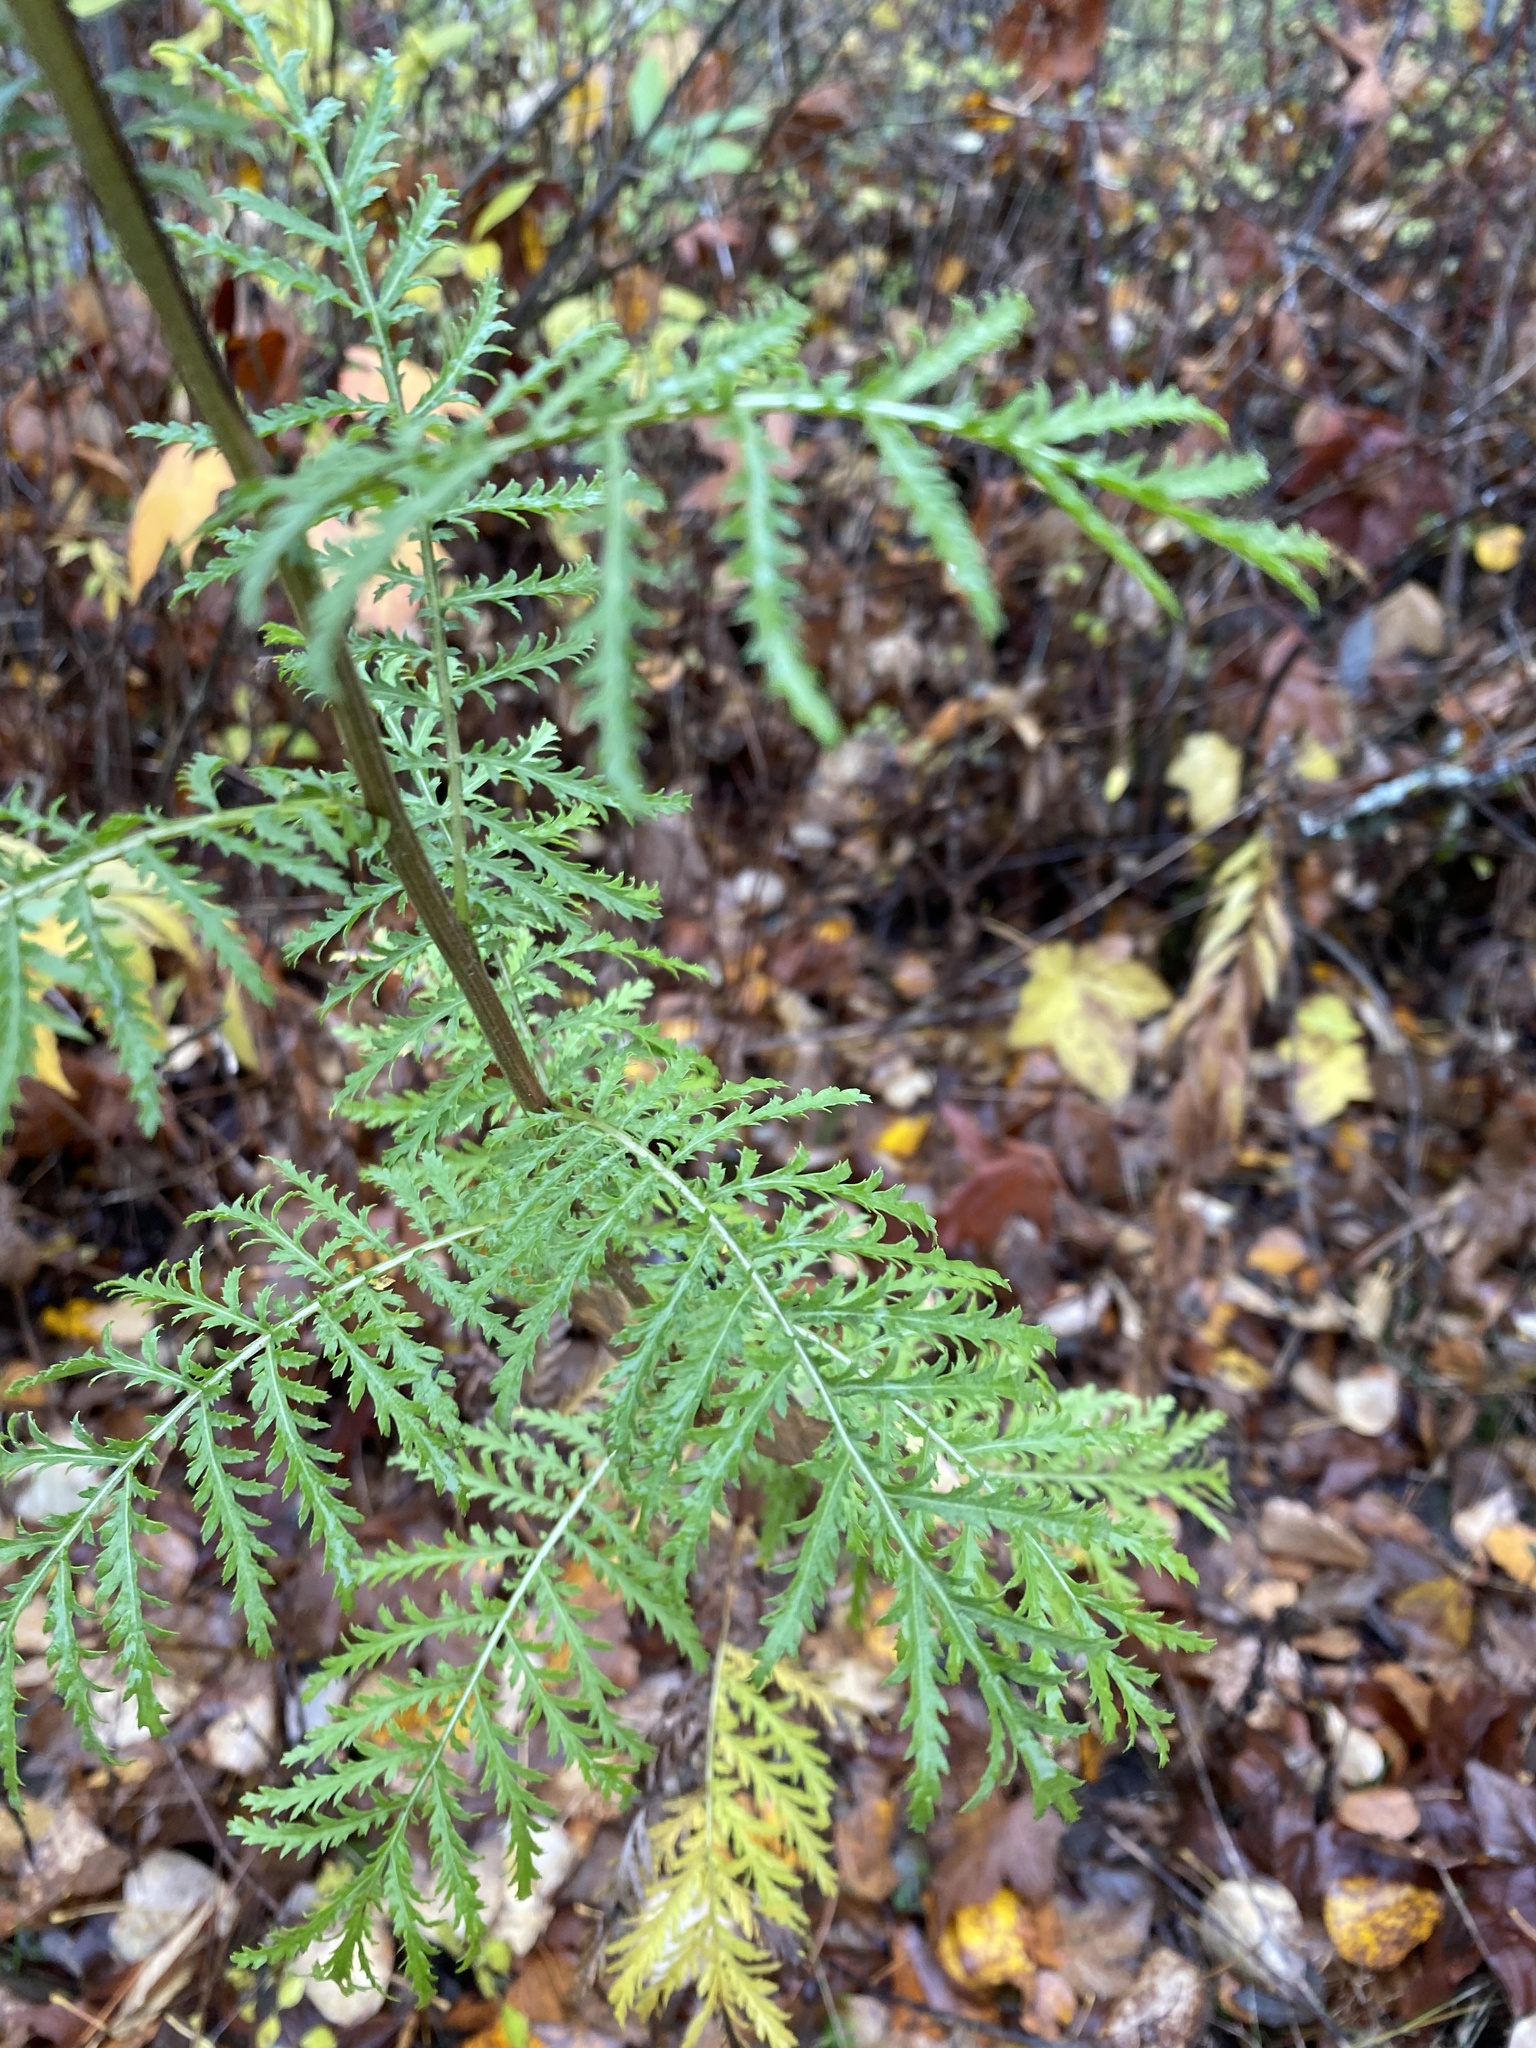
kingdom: Plantae
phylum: Tracheophyta
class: Magnoliopsida
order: Asterales
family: Asteraceae
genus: Tanacetum
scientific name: Tanacetum vulgare
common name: Common tansy
